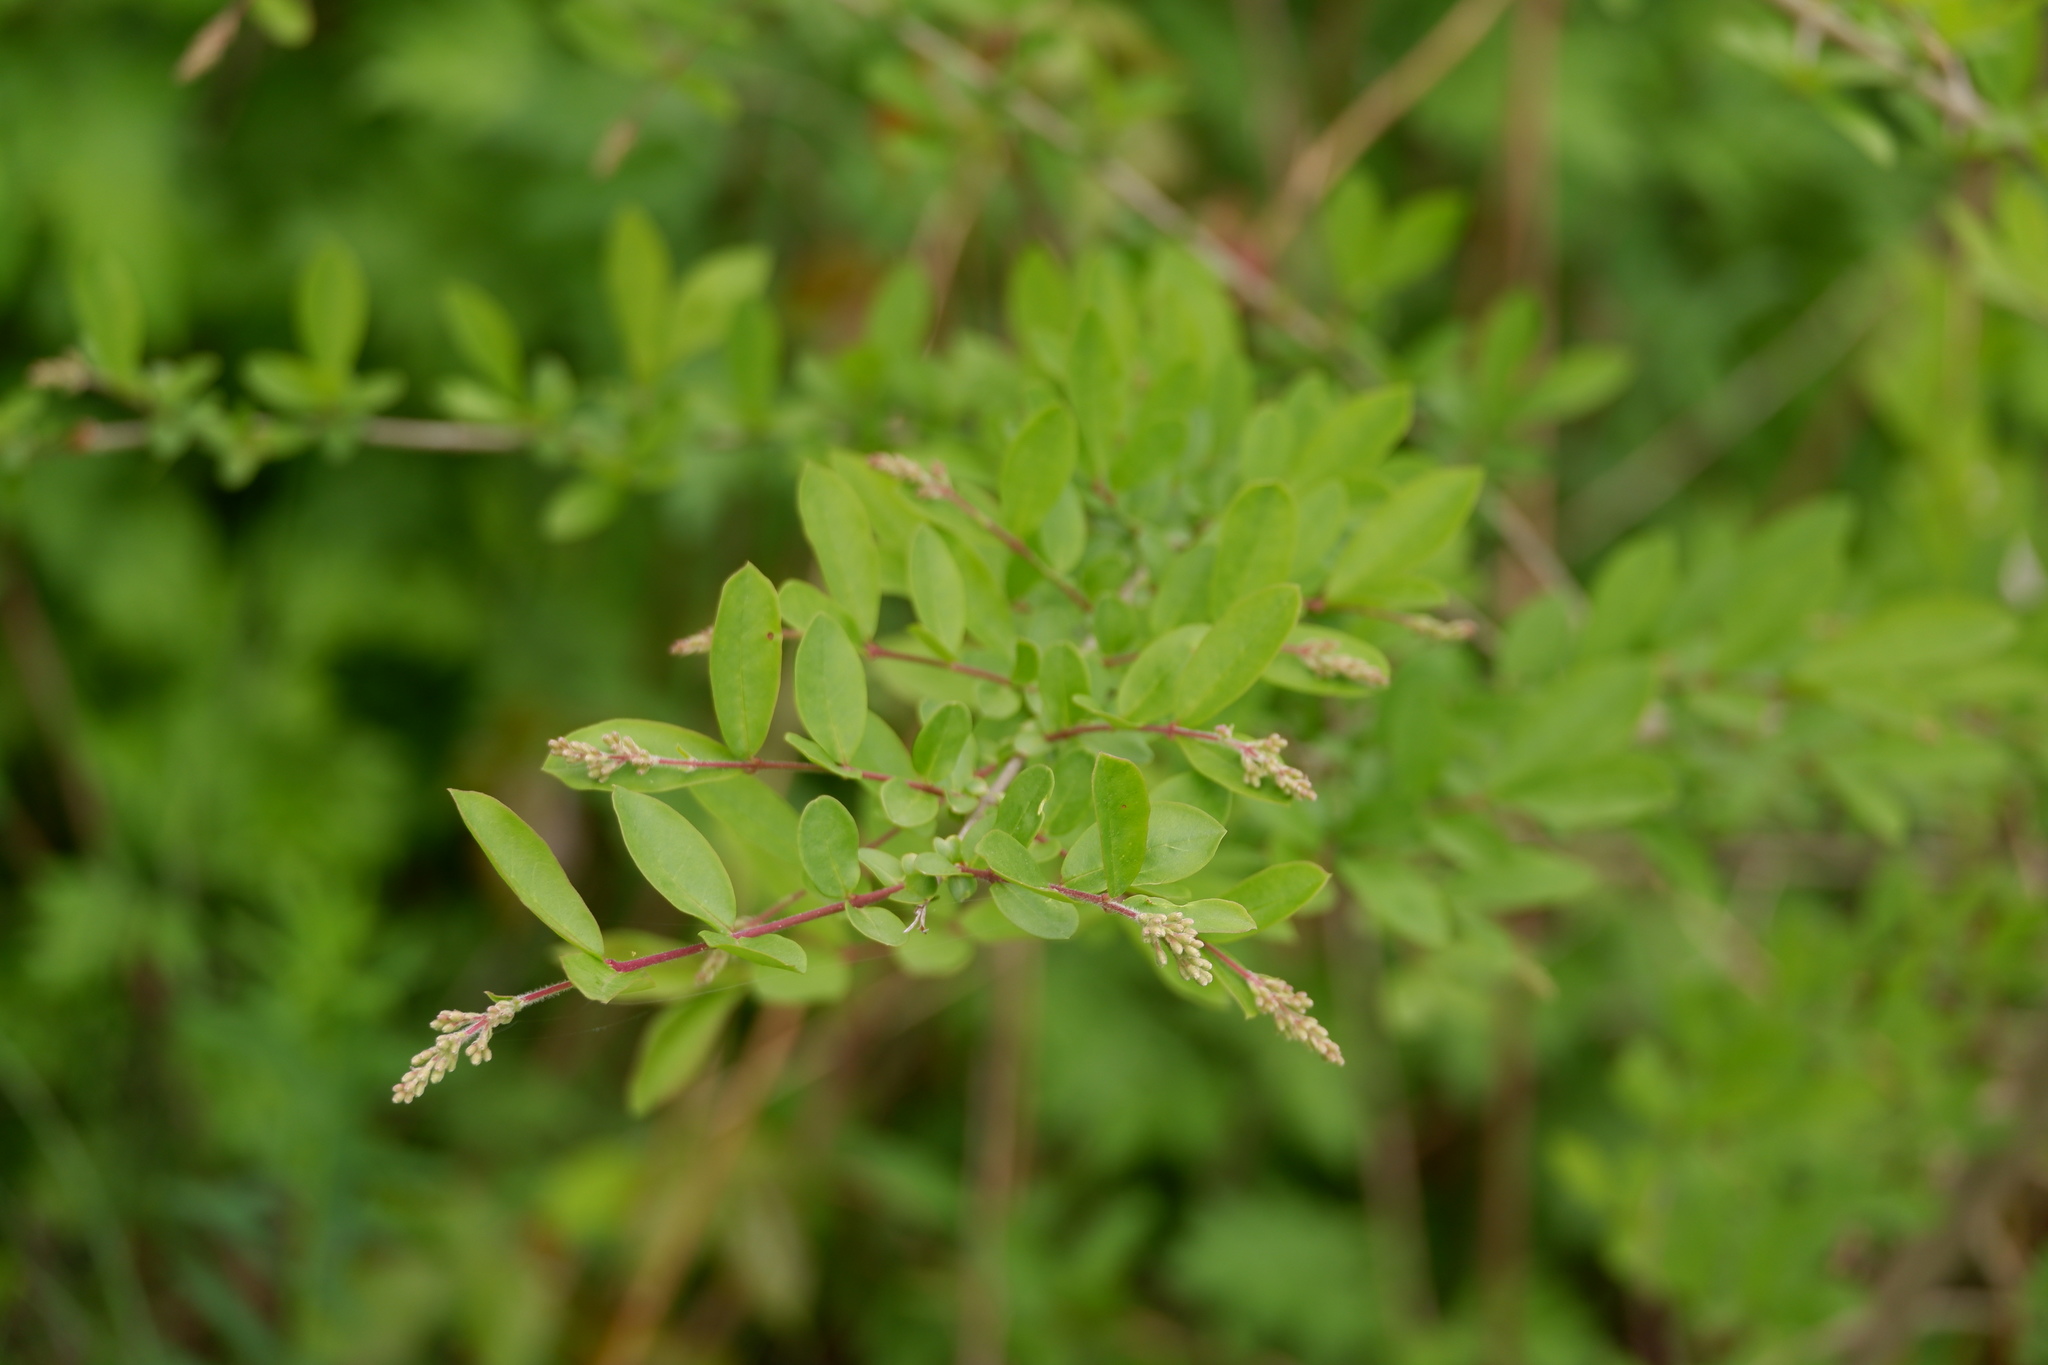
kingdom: Plantae
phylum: Tracheophyta
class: Magnoliopsida
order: Lamiales
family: Oleaceae
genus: Ligustrum
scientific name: Ligustrum obtusifolium
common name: Border privet
